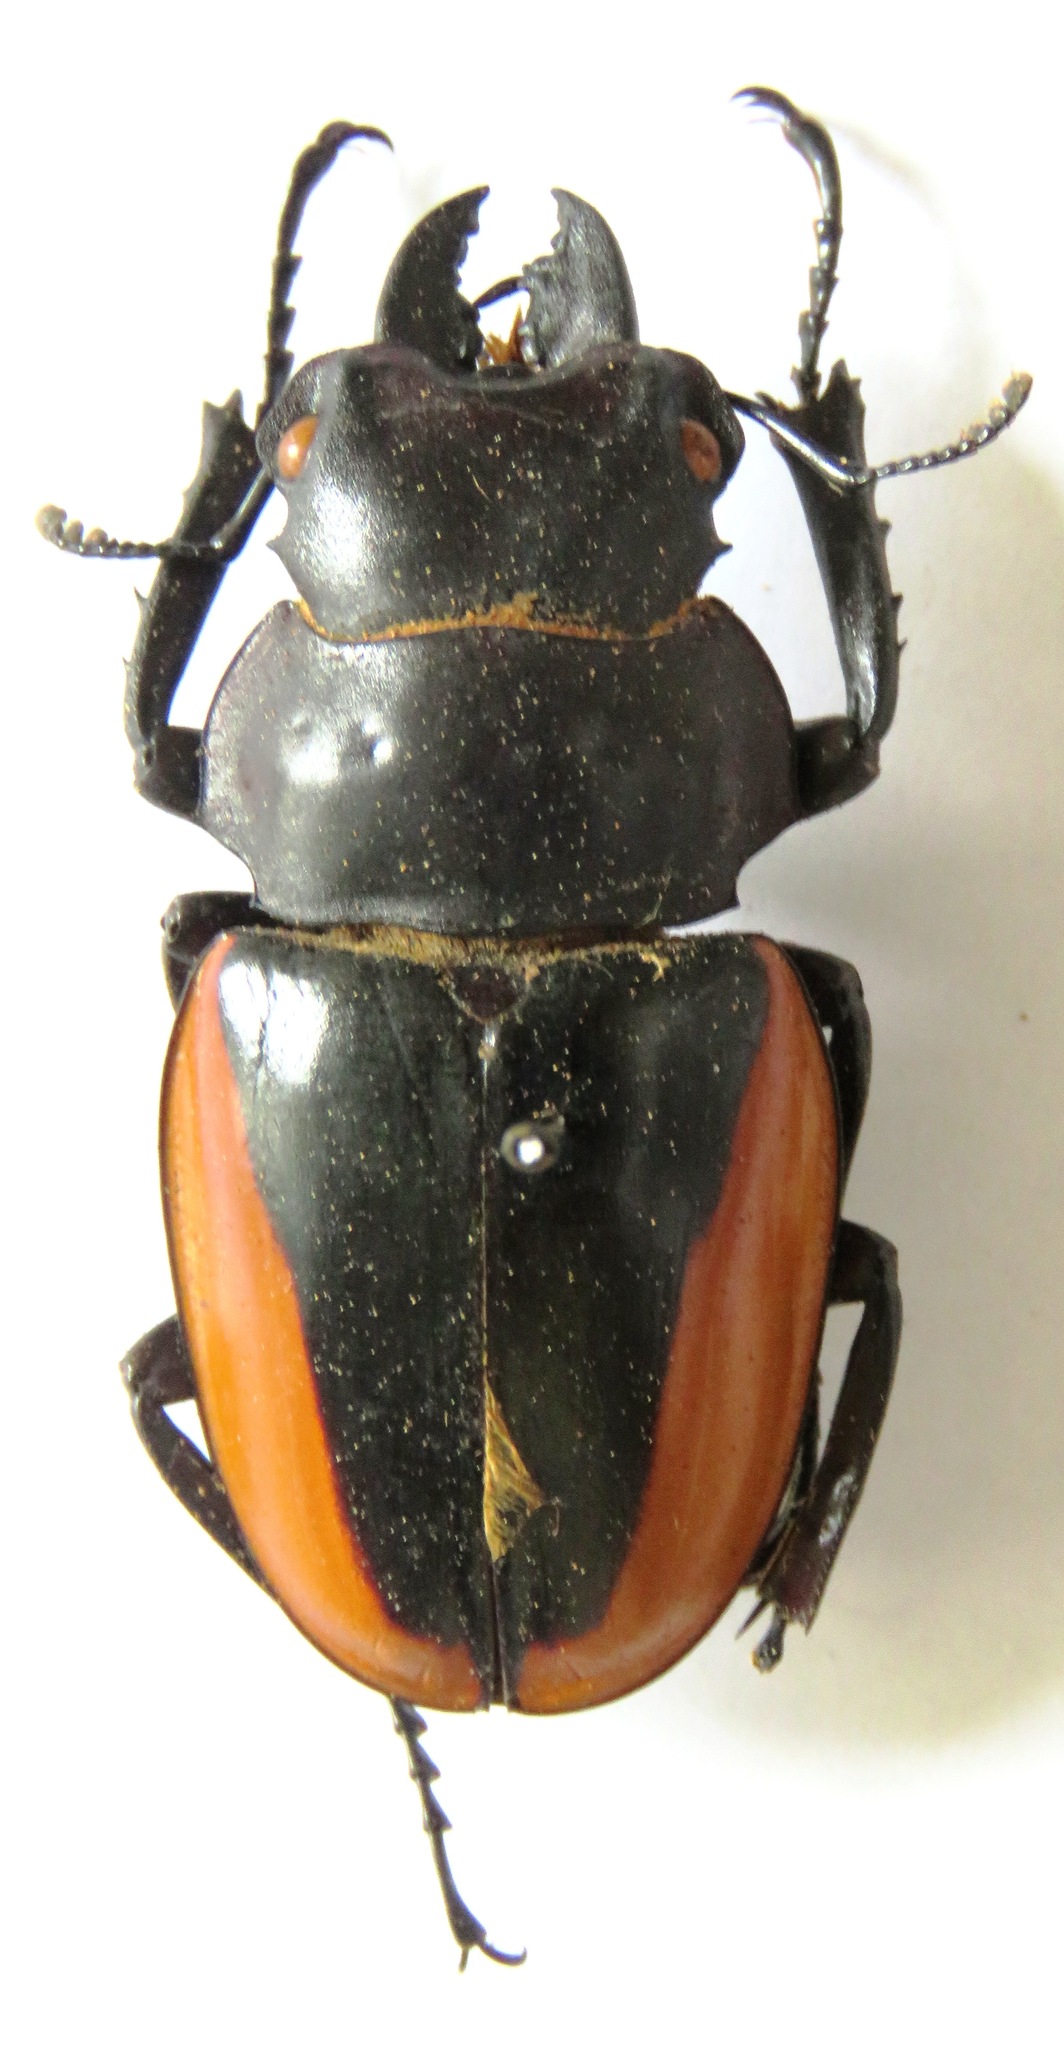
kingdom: Animalia
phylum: Arthropoda
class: Insecta
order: Coleoptera
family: Lucanidae
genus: Odontolabis
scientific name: Odontolabis cuvera
